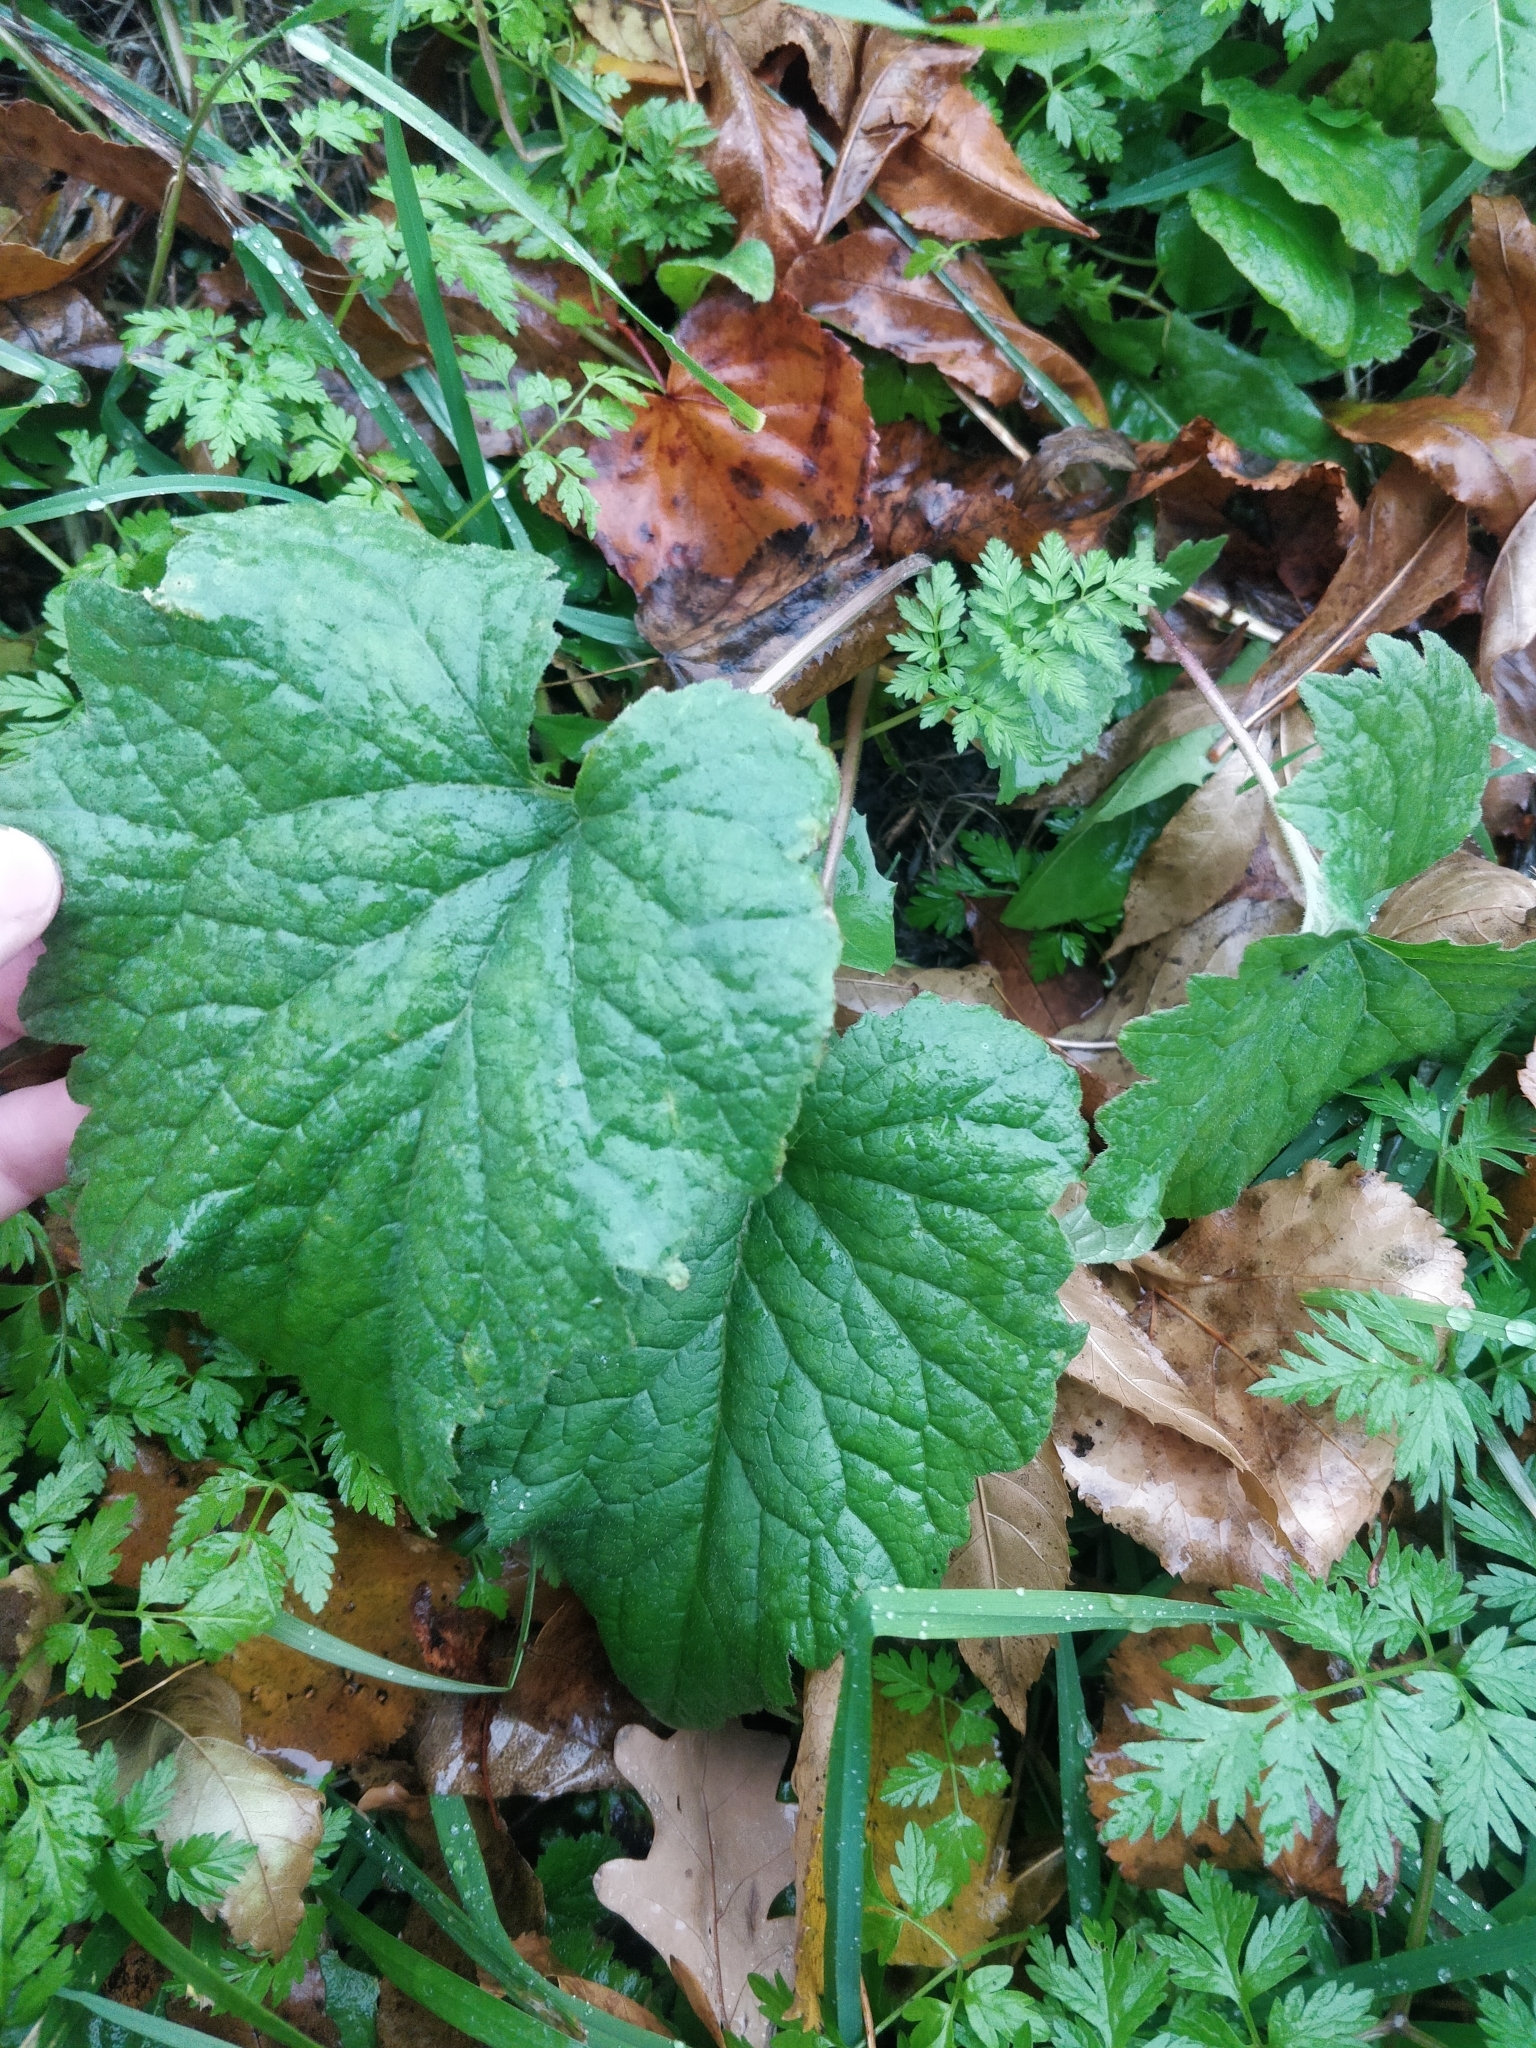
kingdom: Plantae
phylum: Tracheophyta
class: Magnoliopsida
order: Asterales
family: Campanulaceae
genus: Campanula
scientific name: Campanula trachelium
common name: Nettle-leaved bellflower
